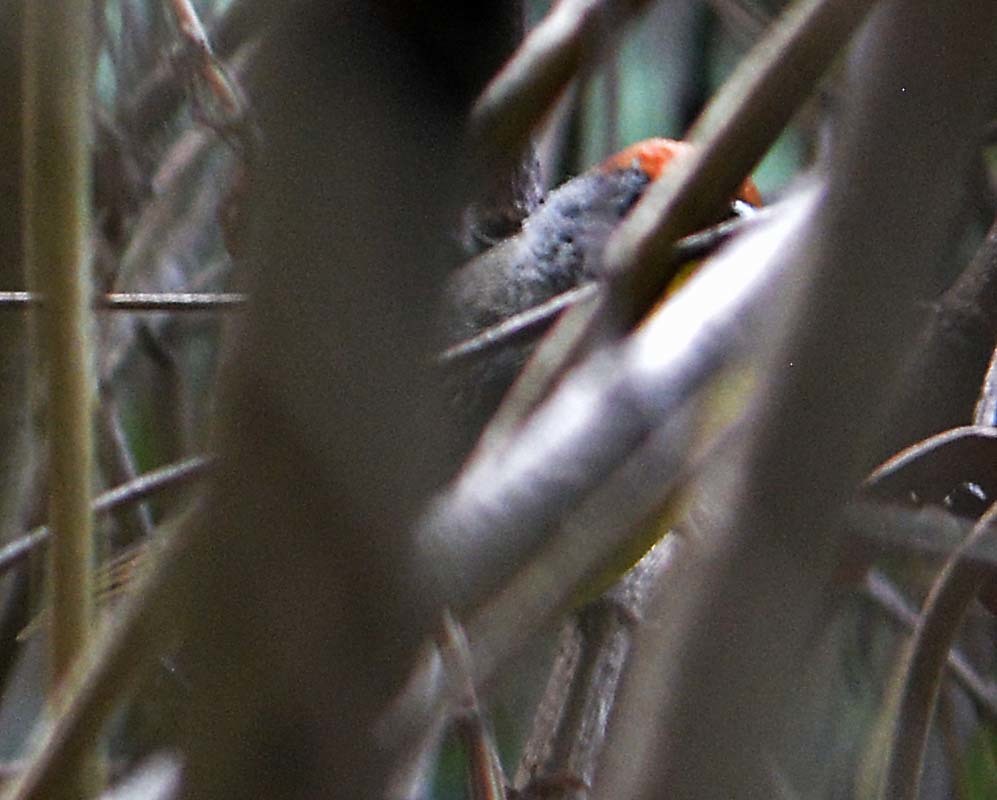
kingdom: Animalia
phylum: Chordata
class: Aves
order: Passeriformes
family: Passerellidae
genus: Atlapetes
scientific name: Atlapetes pileatus
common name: Rufous-capped brush-finch
